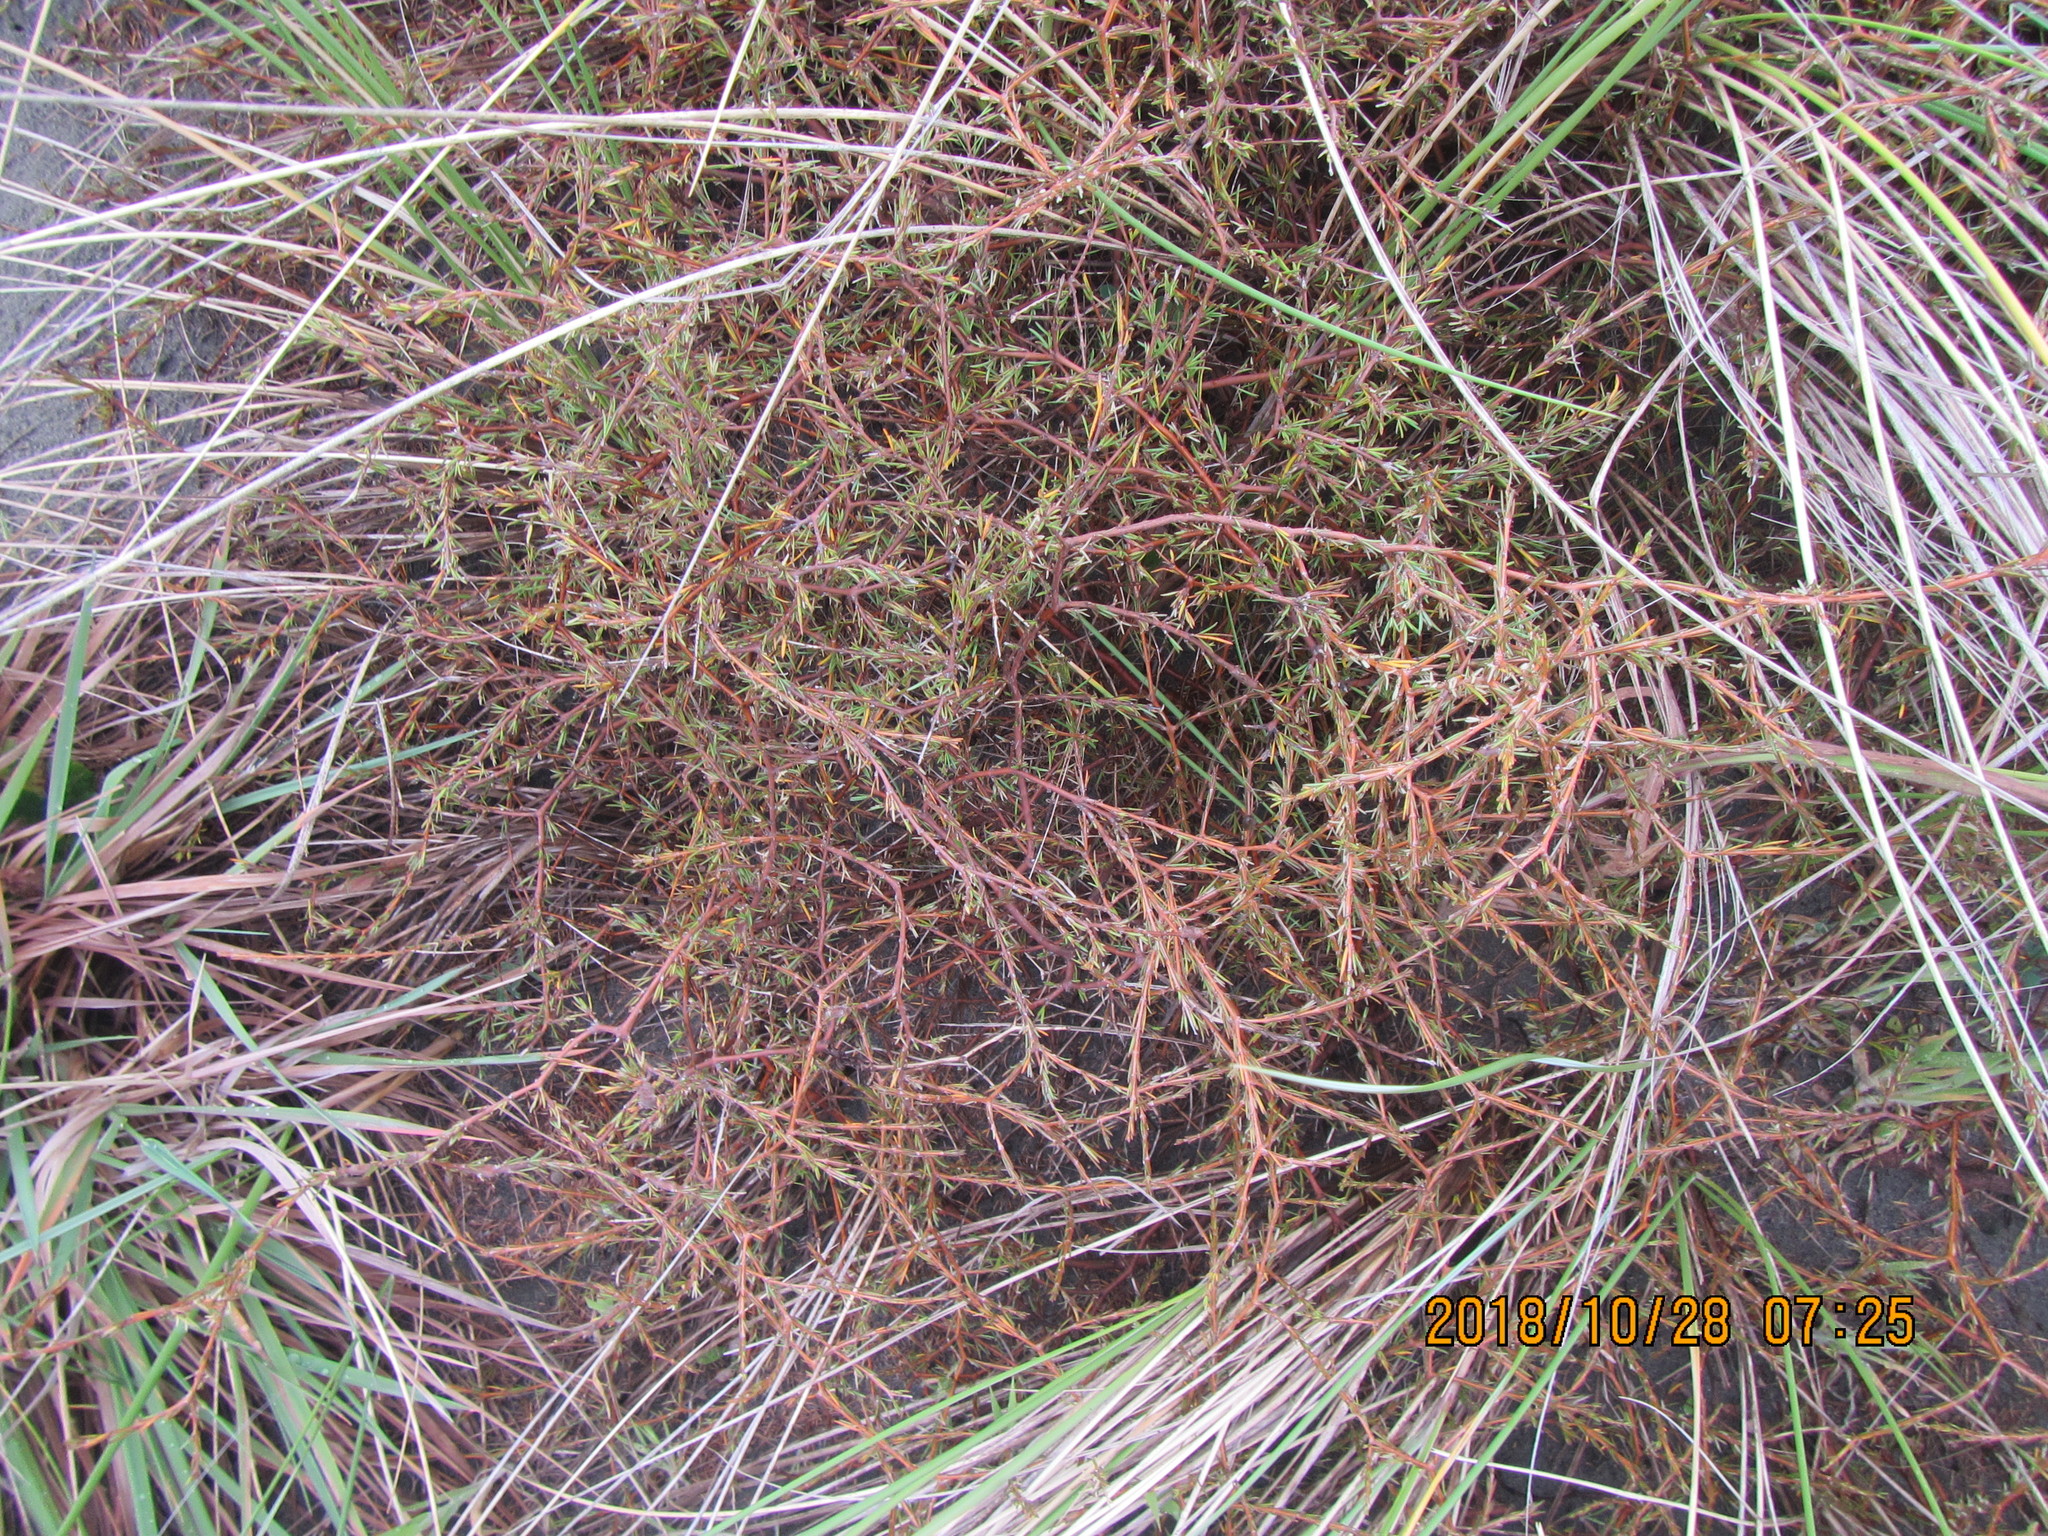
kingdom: Plantae
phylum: Tracheophyta
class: Magnoliopsida
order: Gentianales
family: Rubiaceae
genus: Coprosma
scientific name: Coprosma acerosa
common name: Sand coprosma
